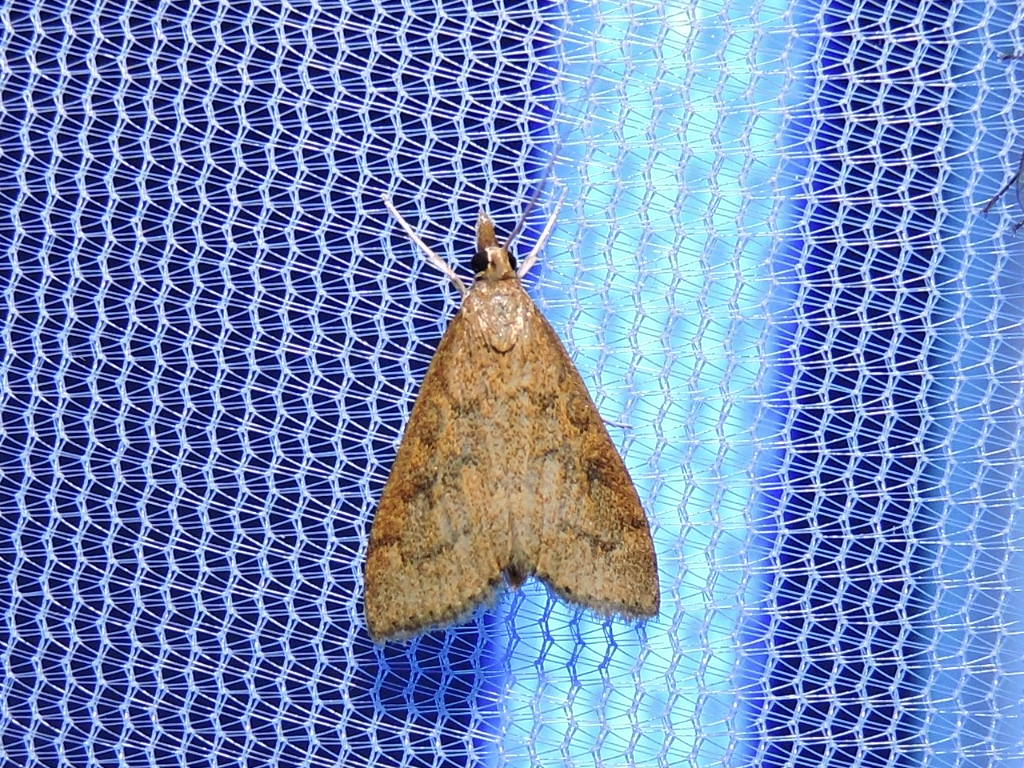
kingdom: Animalia
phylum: Arthropoda
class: Insecta
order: Lepidoptera
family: Crambidae
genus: Udea
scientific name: Udea rubigalis
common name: Celery leaftier moth
